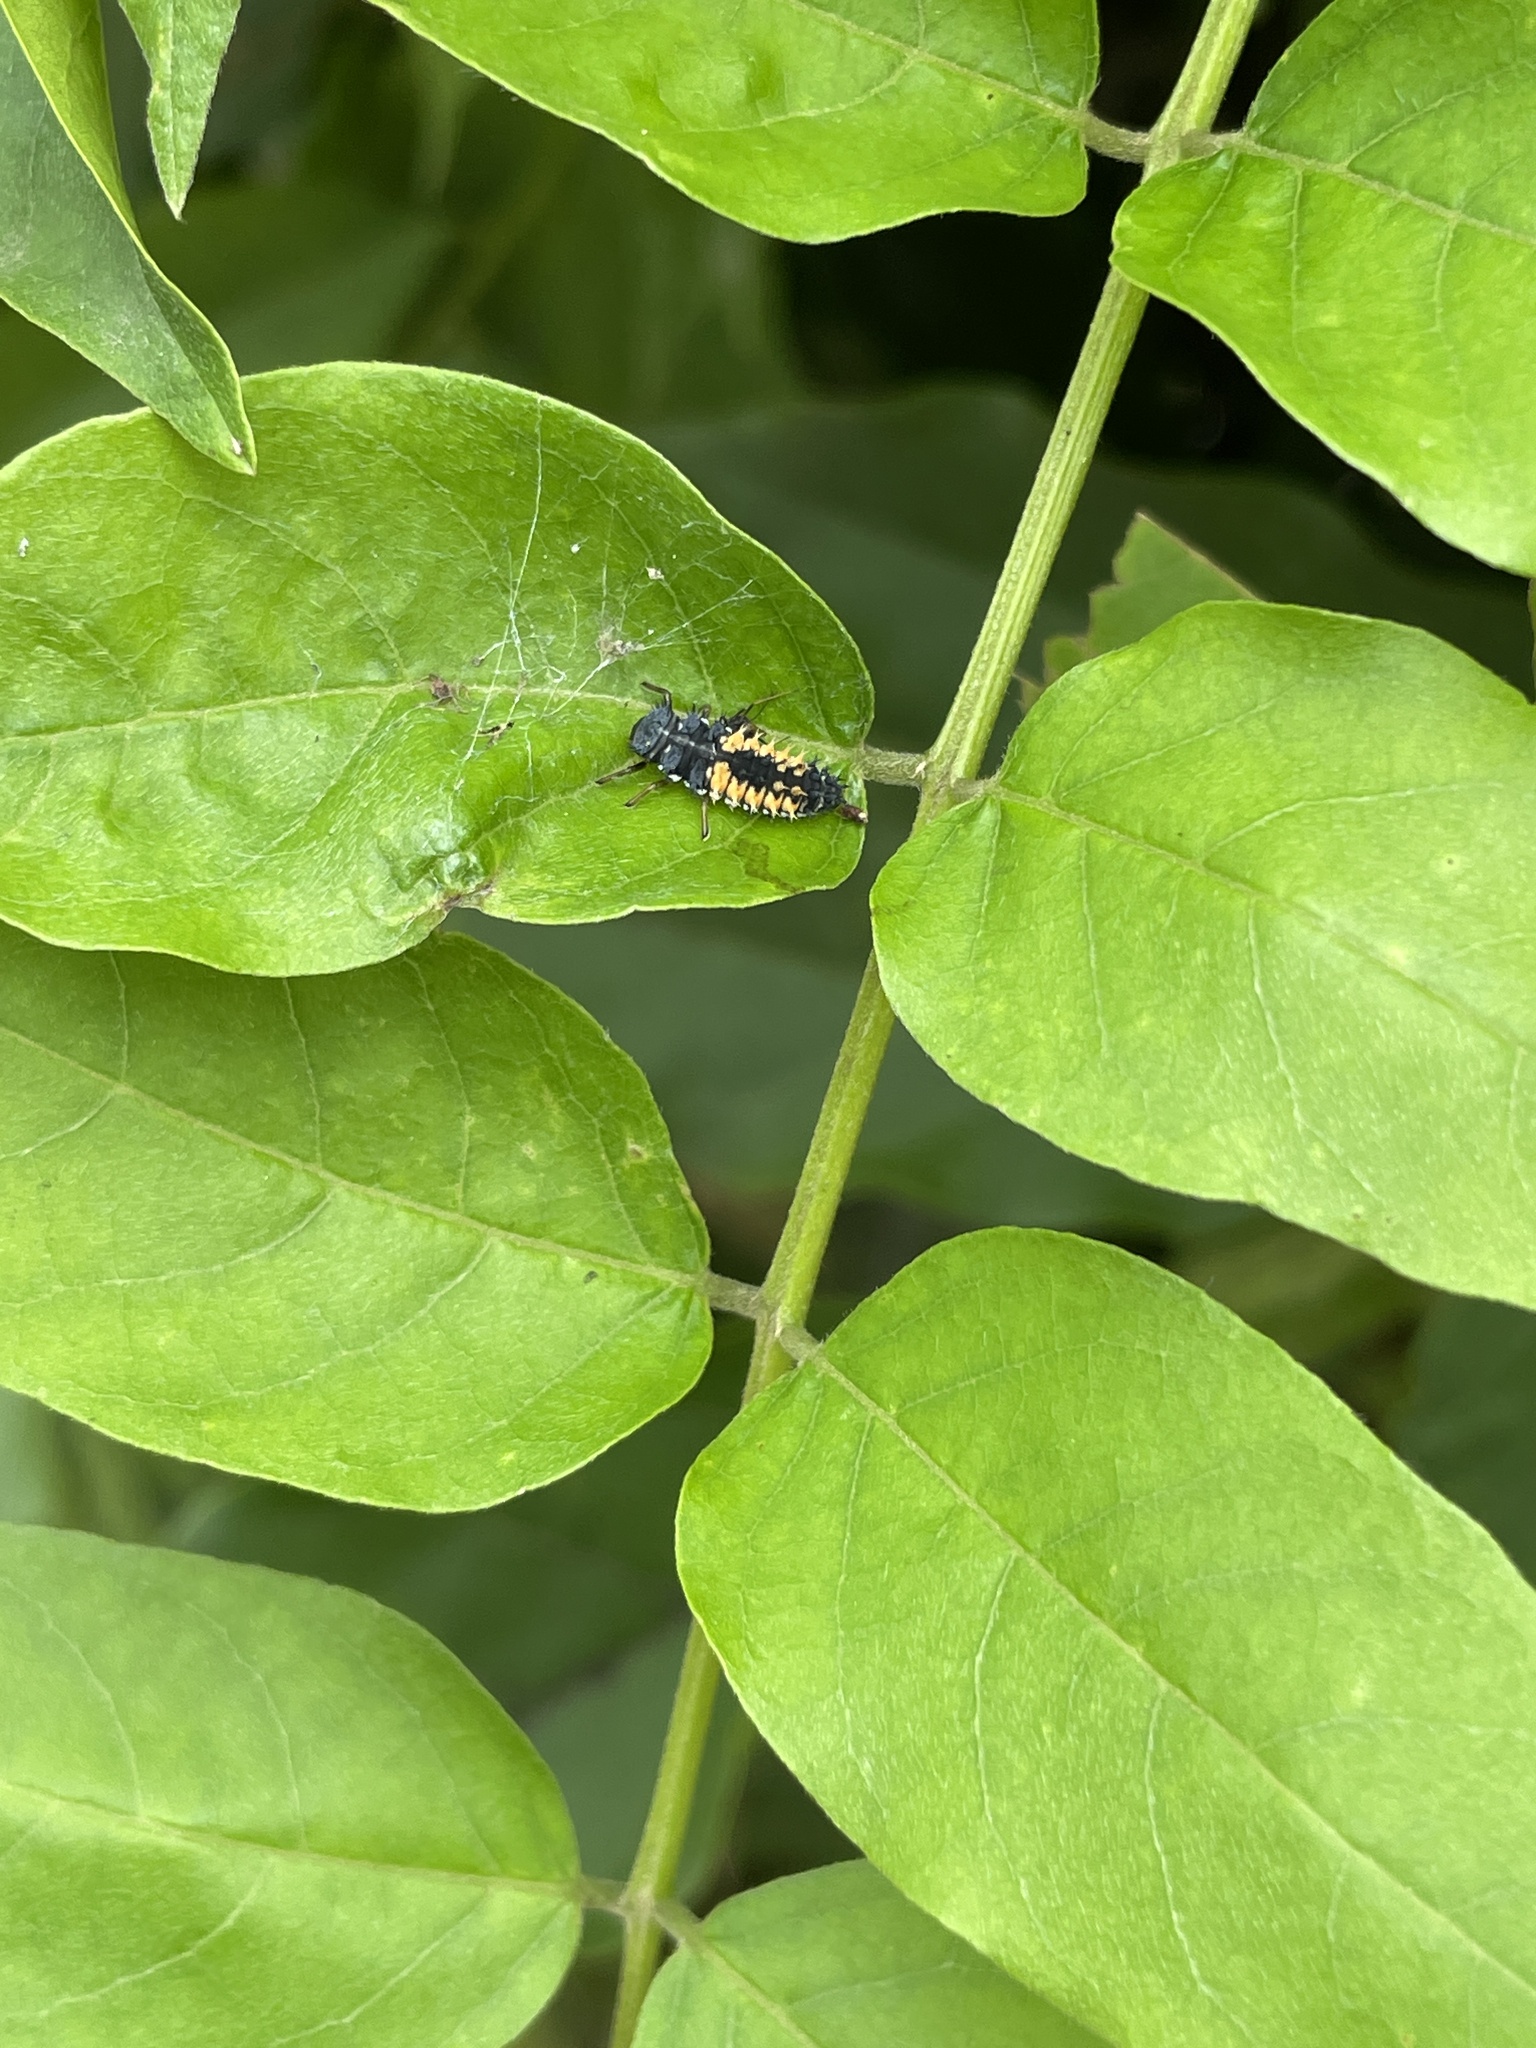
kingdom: Animalia
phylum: Arthropoda
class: Insecta
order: Coleoptera
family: Coccinellidae
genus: Harmonia
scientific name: Harmonia axyridis
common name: Harlequin ladybird
